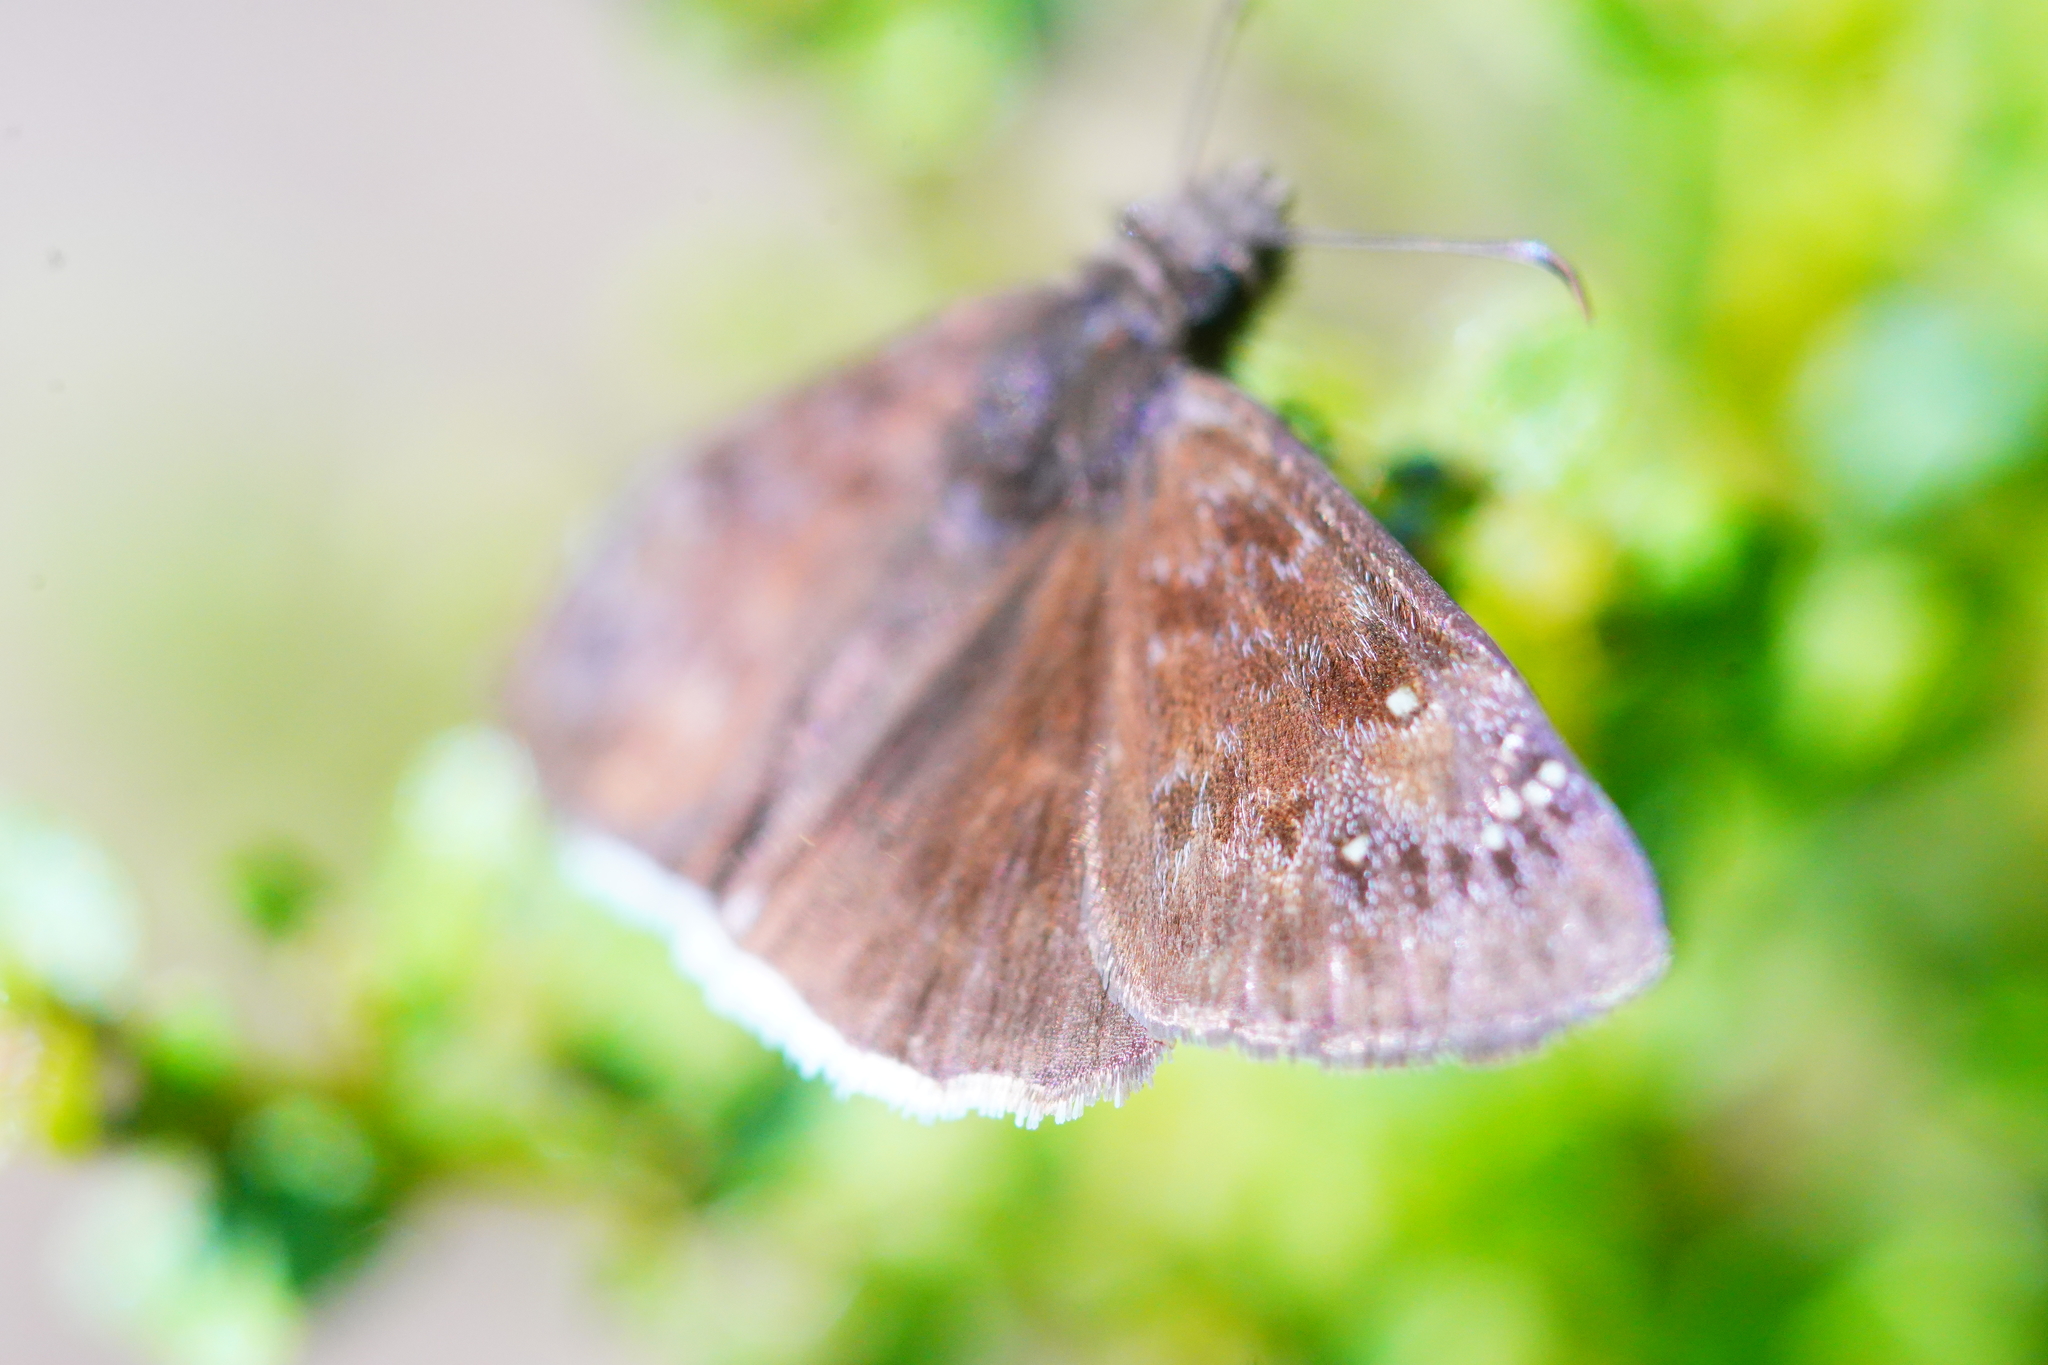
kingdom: Animalia
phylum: Arthropoda
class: Insecta
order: Lepidoptera
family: Hesperiidae
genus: Erynnis
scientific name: Erynnis tristis
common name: Mournful duskywing
